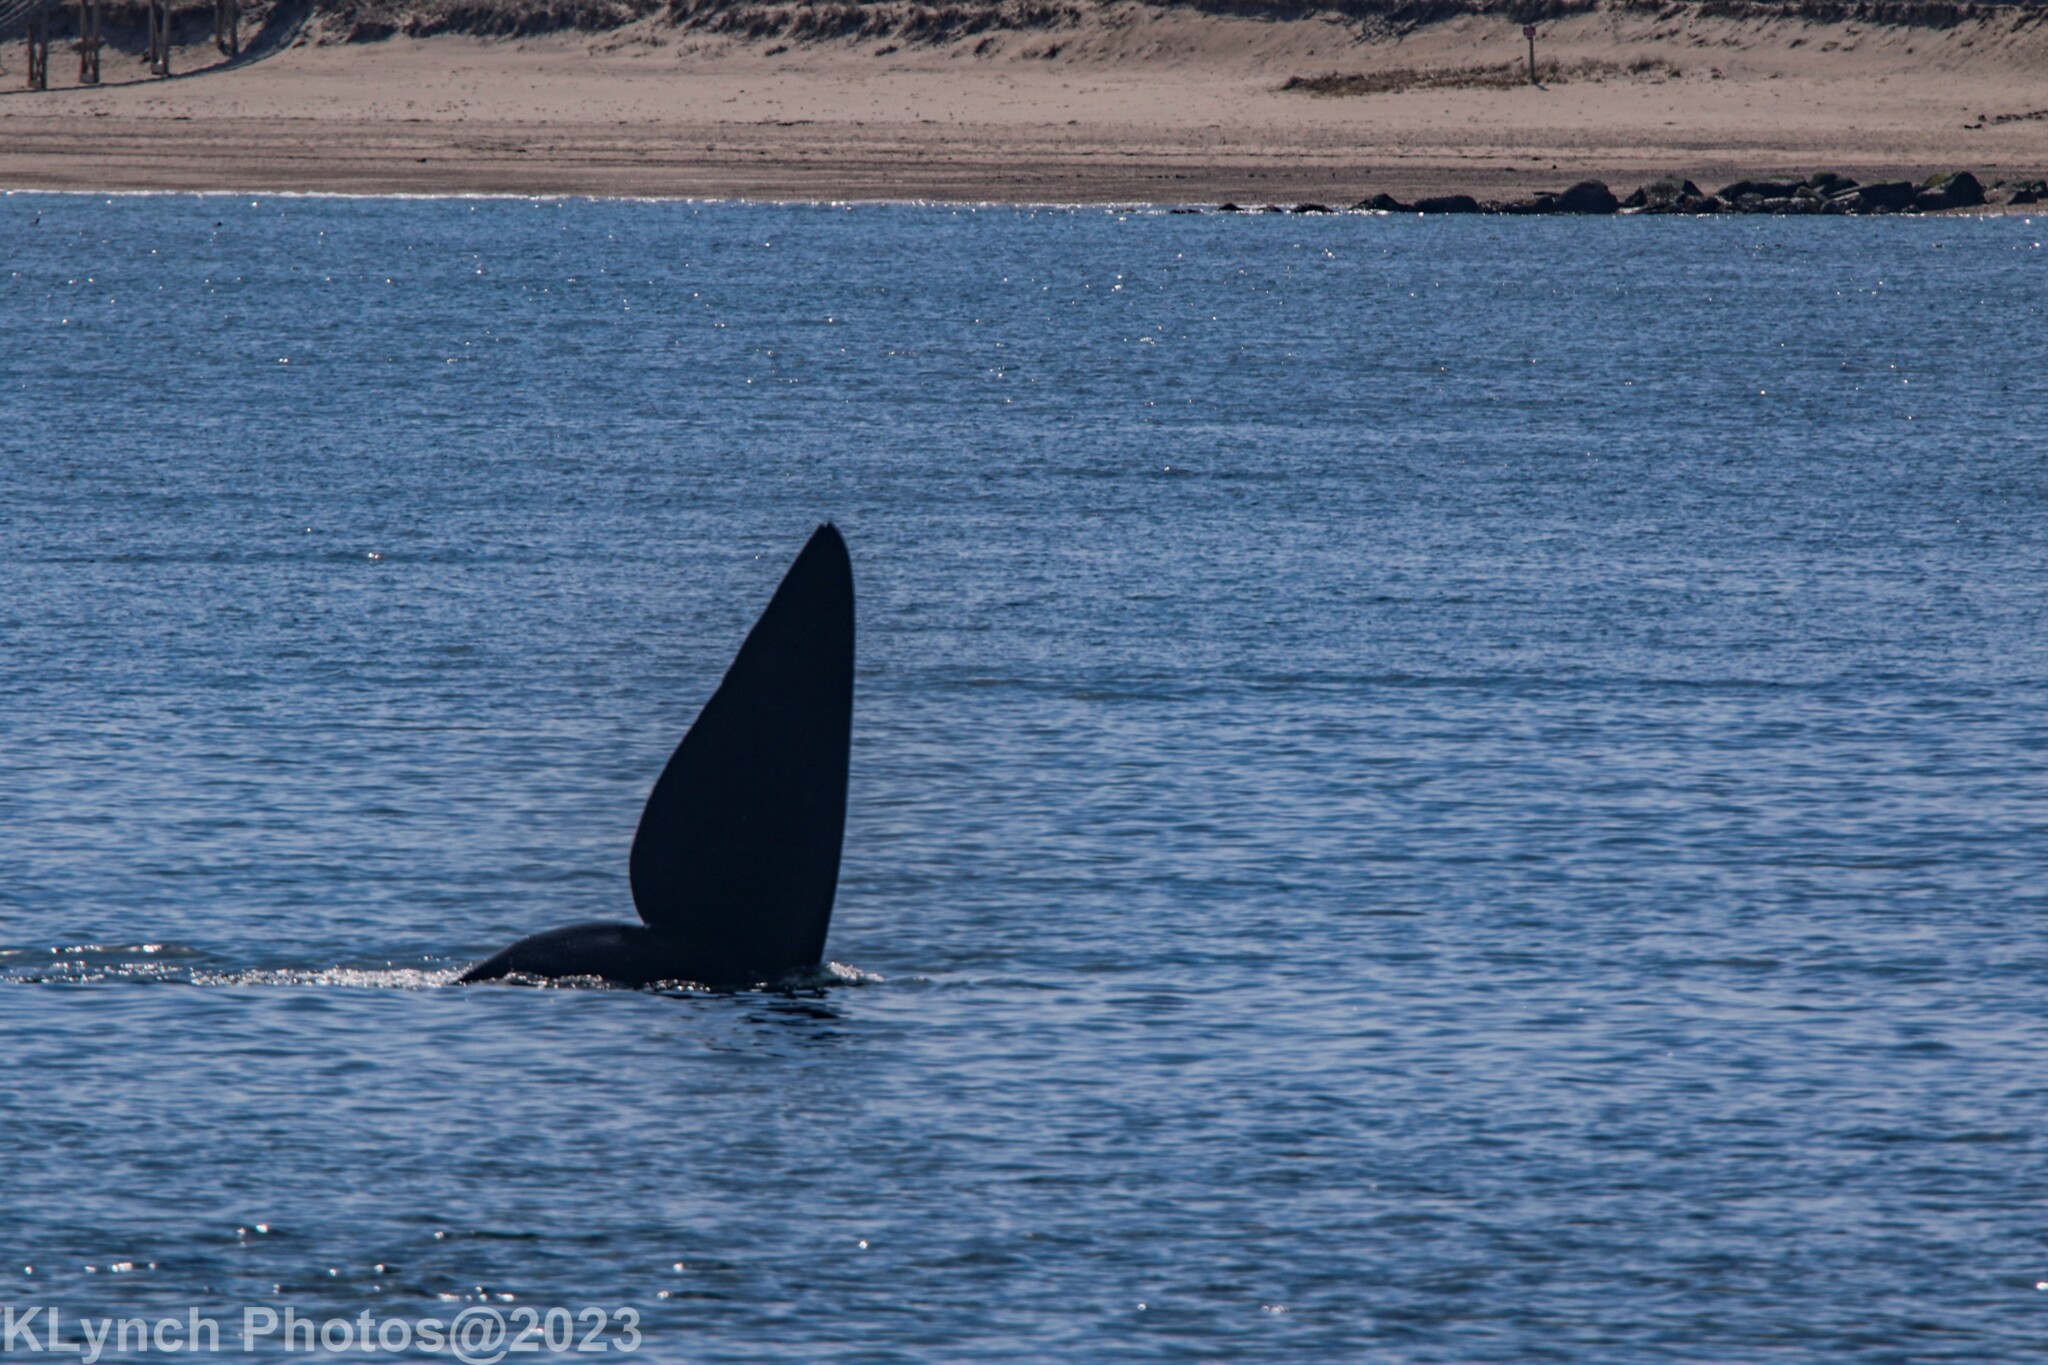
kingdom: Animalia
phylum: Chordata
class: Mammalia
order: Cetacea
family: Balaenidae
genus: Eubalaena
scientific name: Eubalaena glacialis
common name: North atlantic right whale
